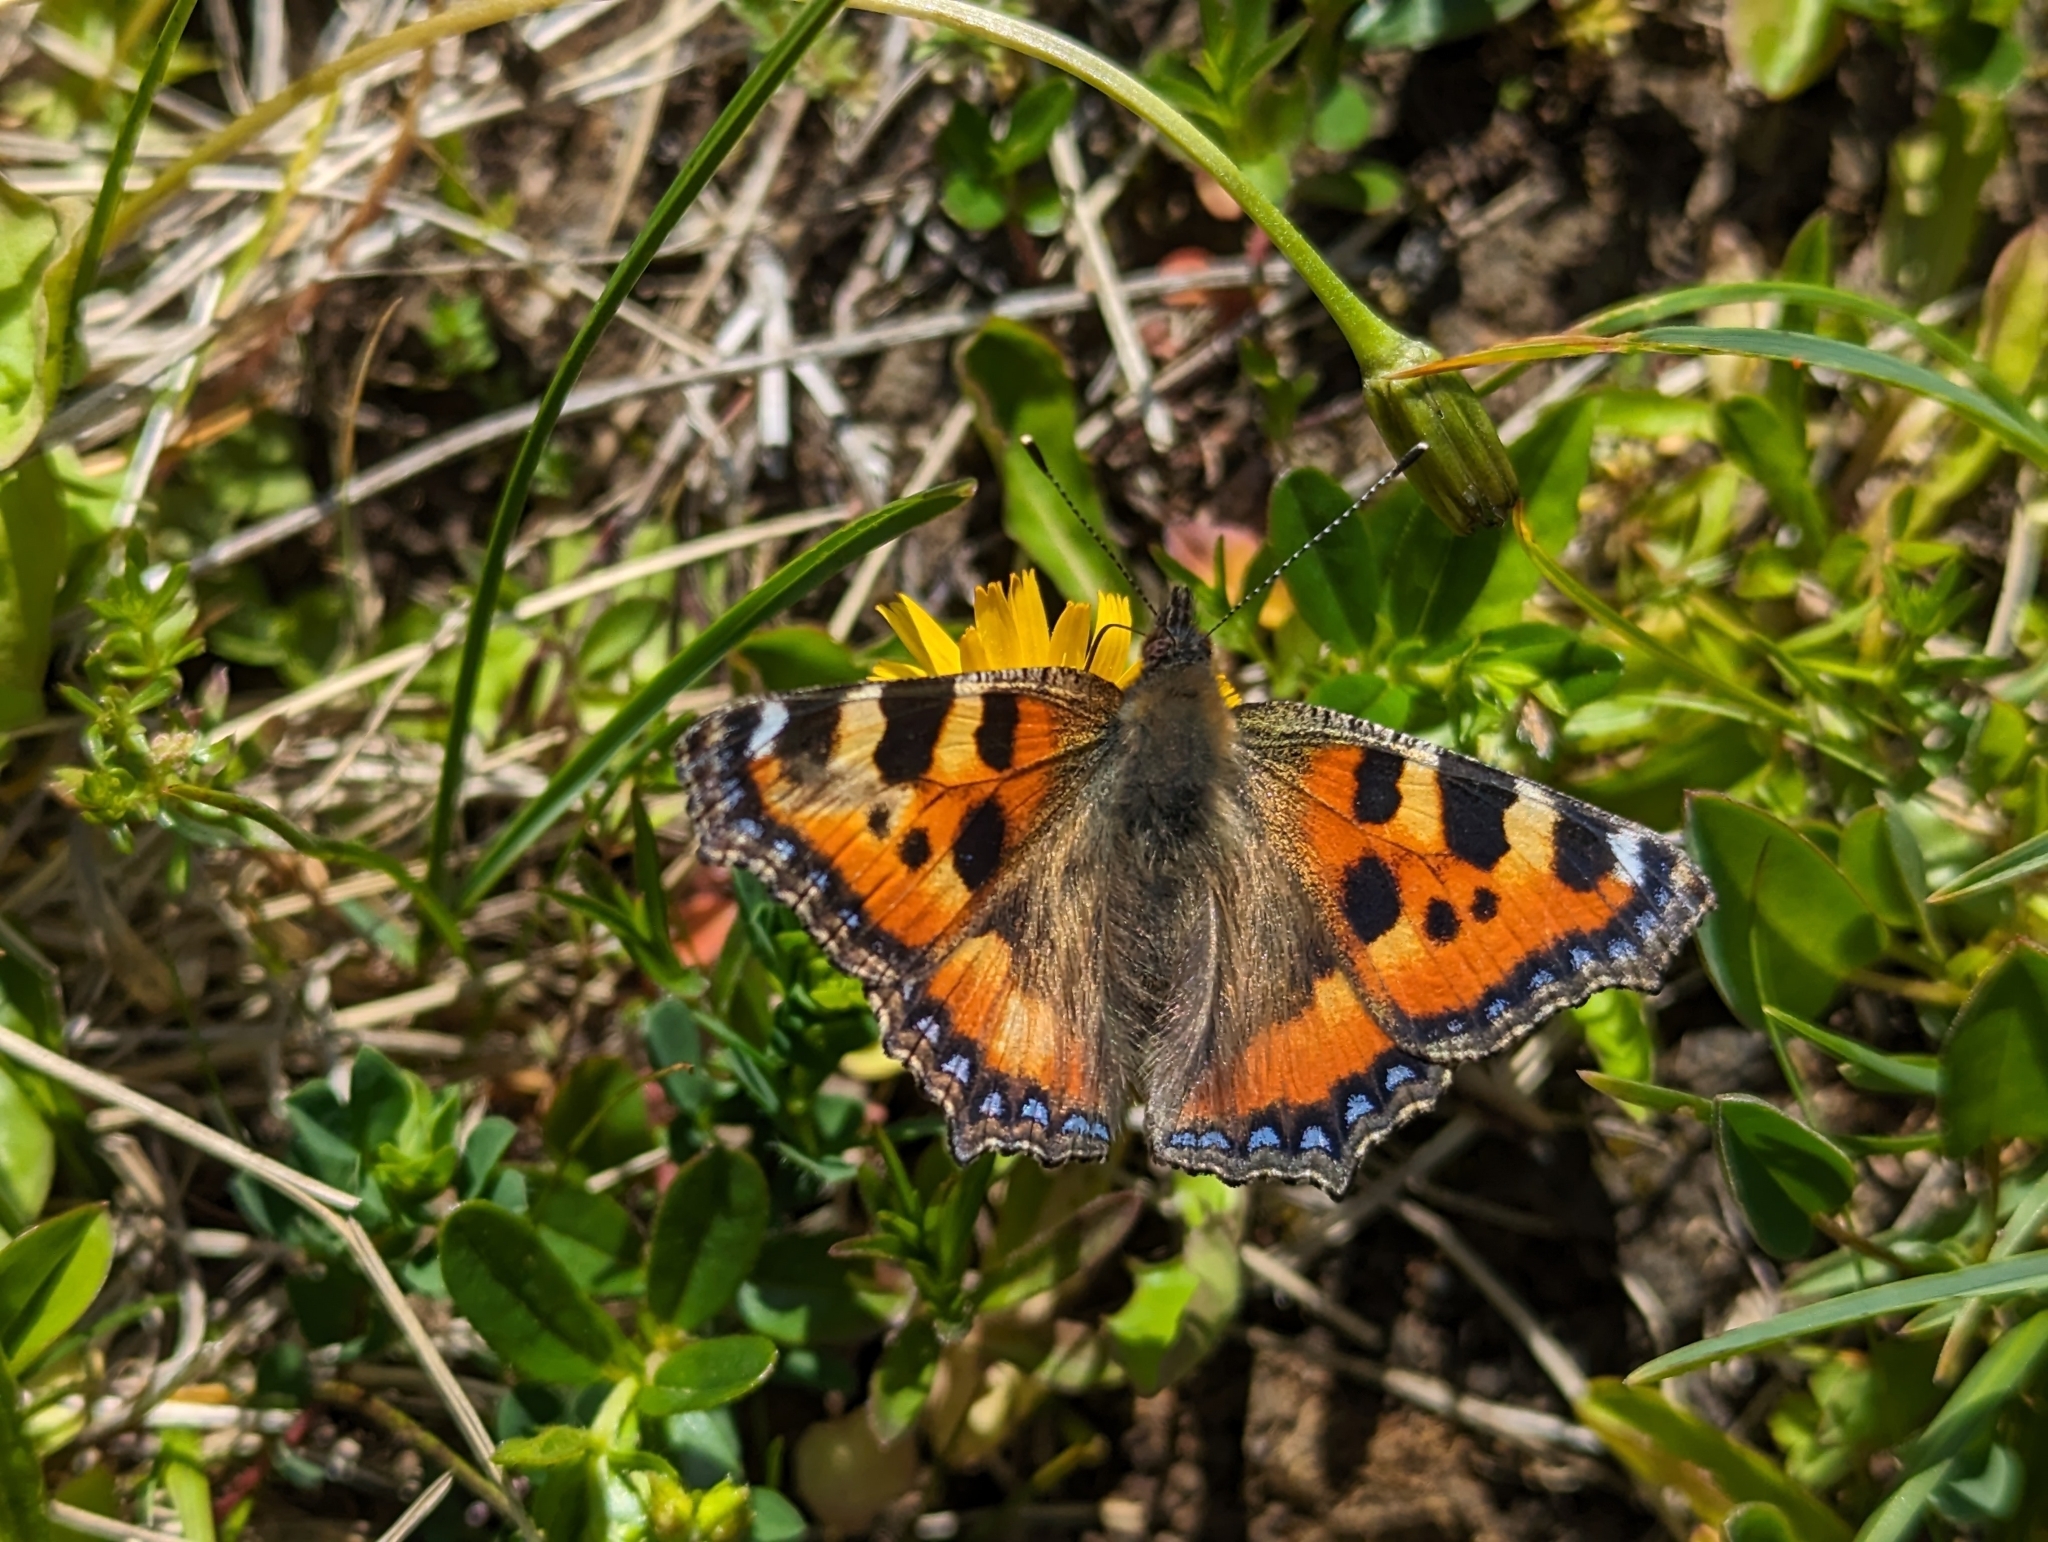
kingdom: Animalia
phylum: Arthropoda
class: Insecta
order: Lepidoptera
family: Nymphalidae
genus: Aglais
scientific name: Aglais urticae
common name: Small tortoiseshell
